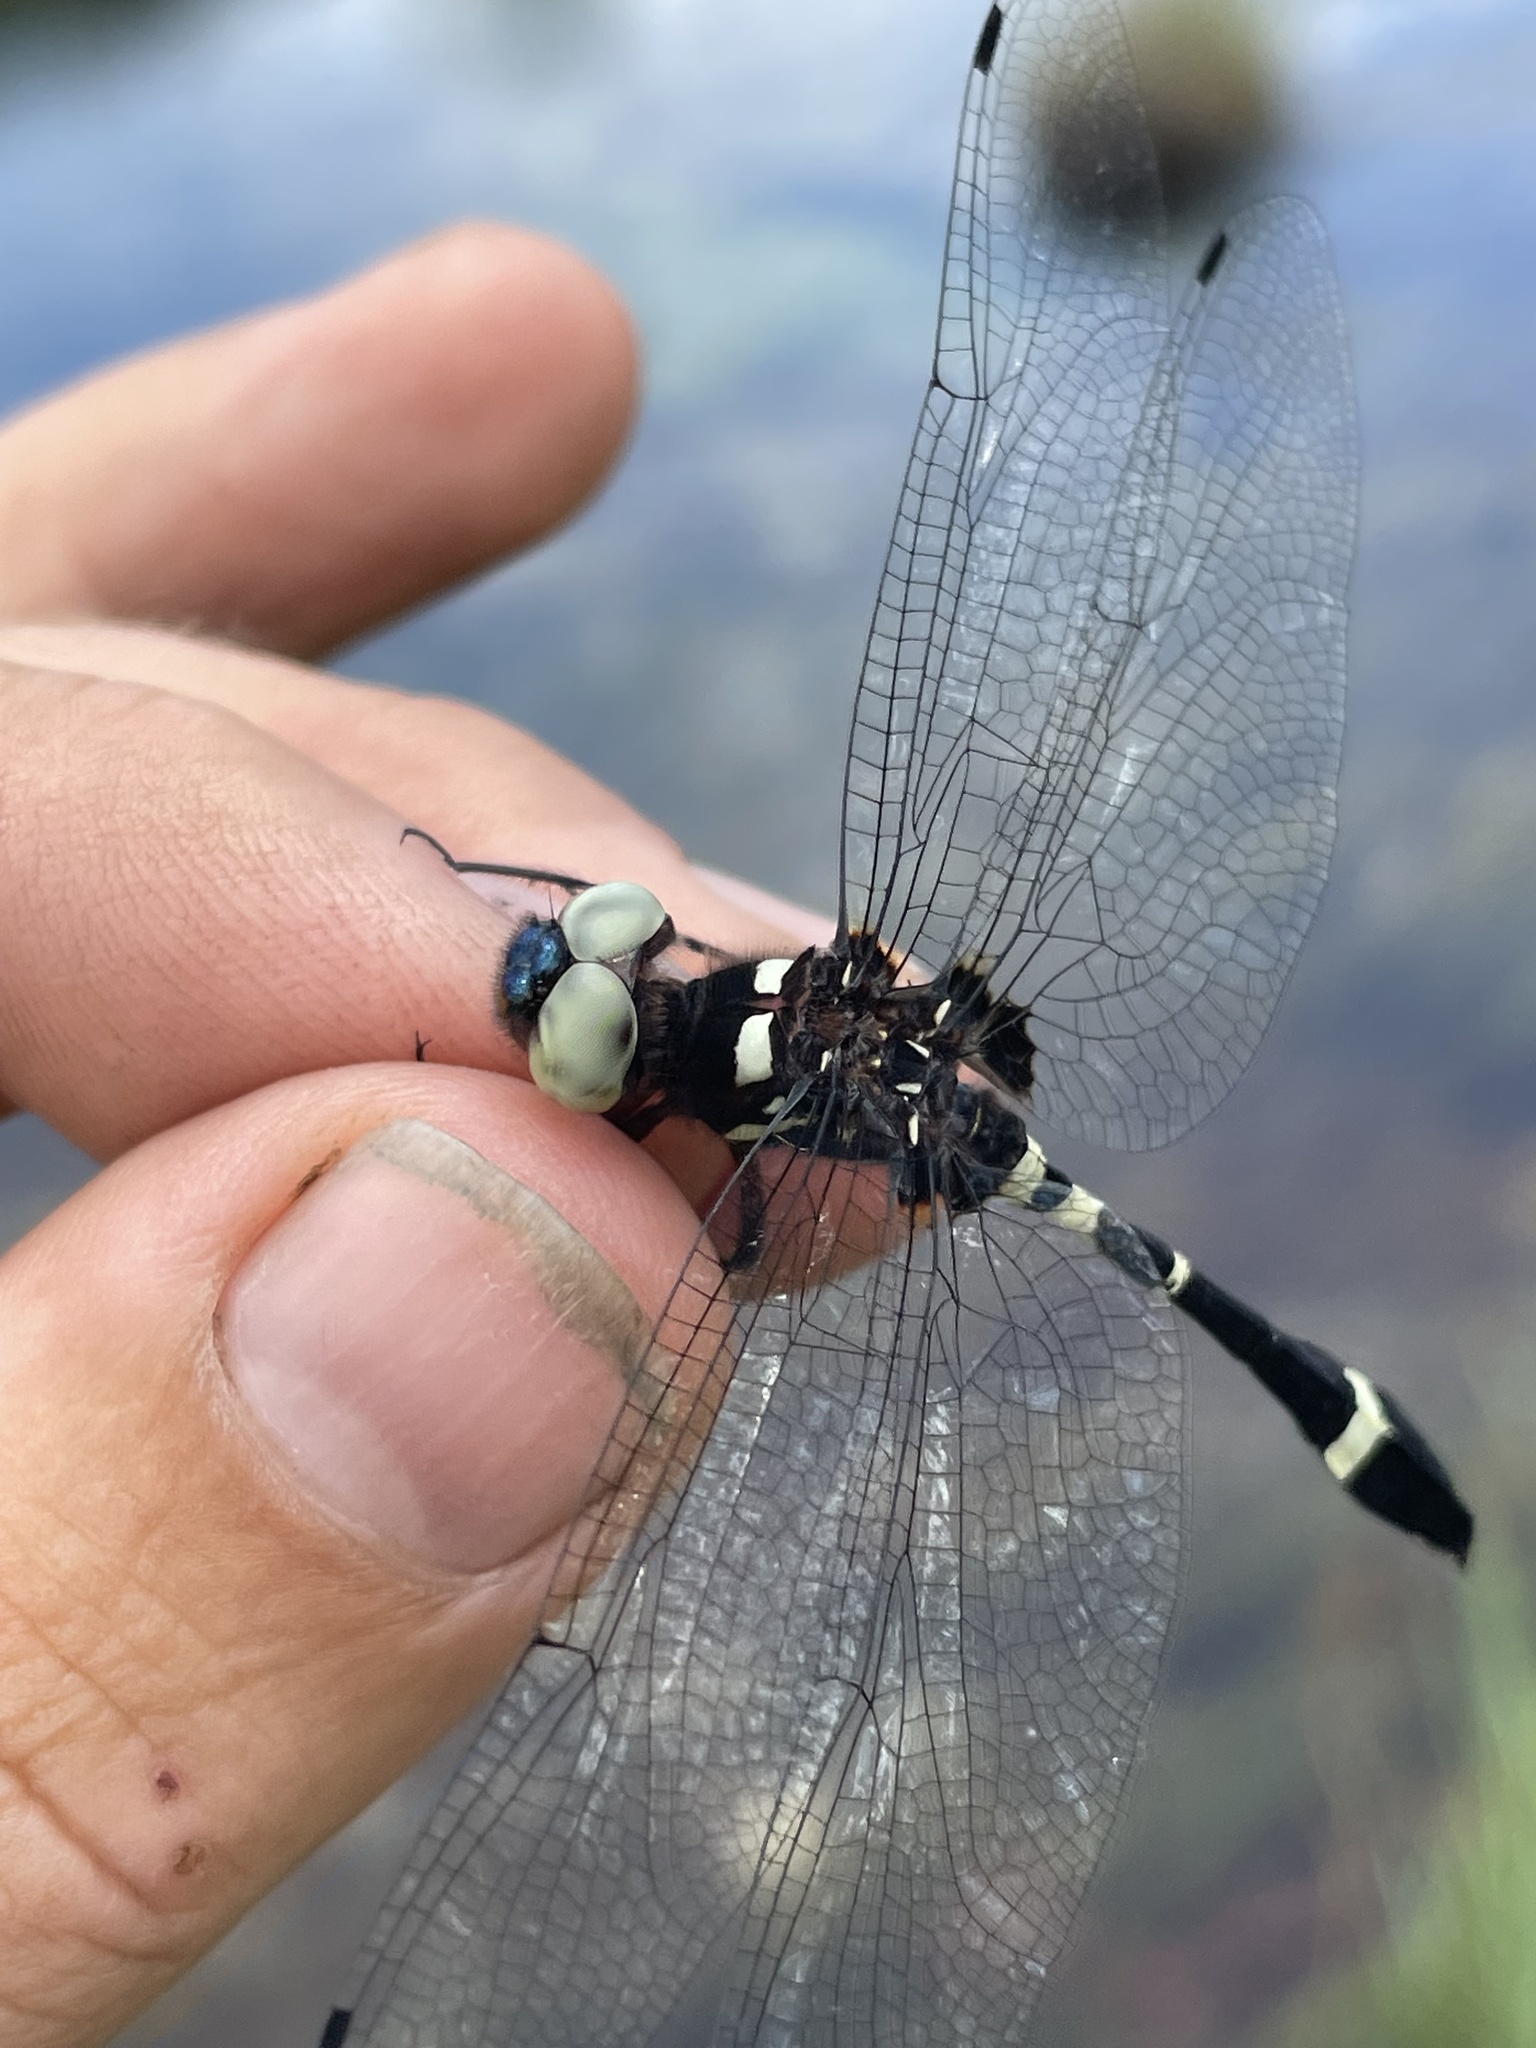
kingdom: Animalia
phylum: Arthropoda
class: Insecta
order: Odonata
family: Libellulidae
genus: Zygonyx
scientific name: Zygonyx atritibiae
